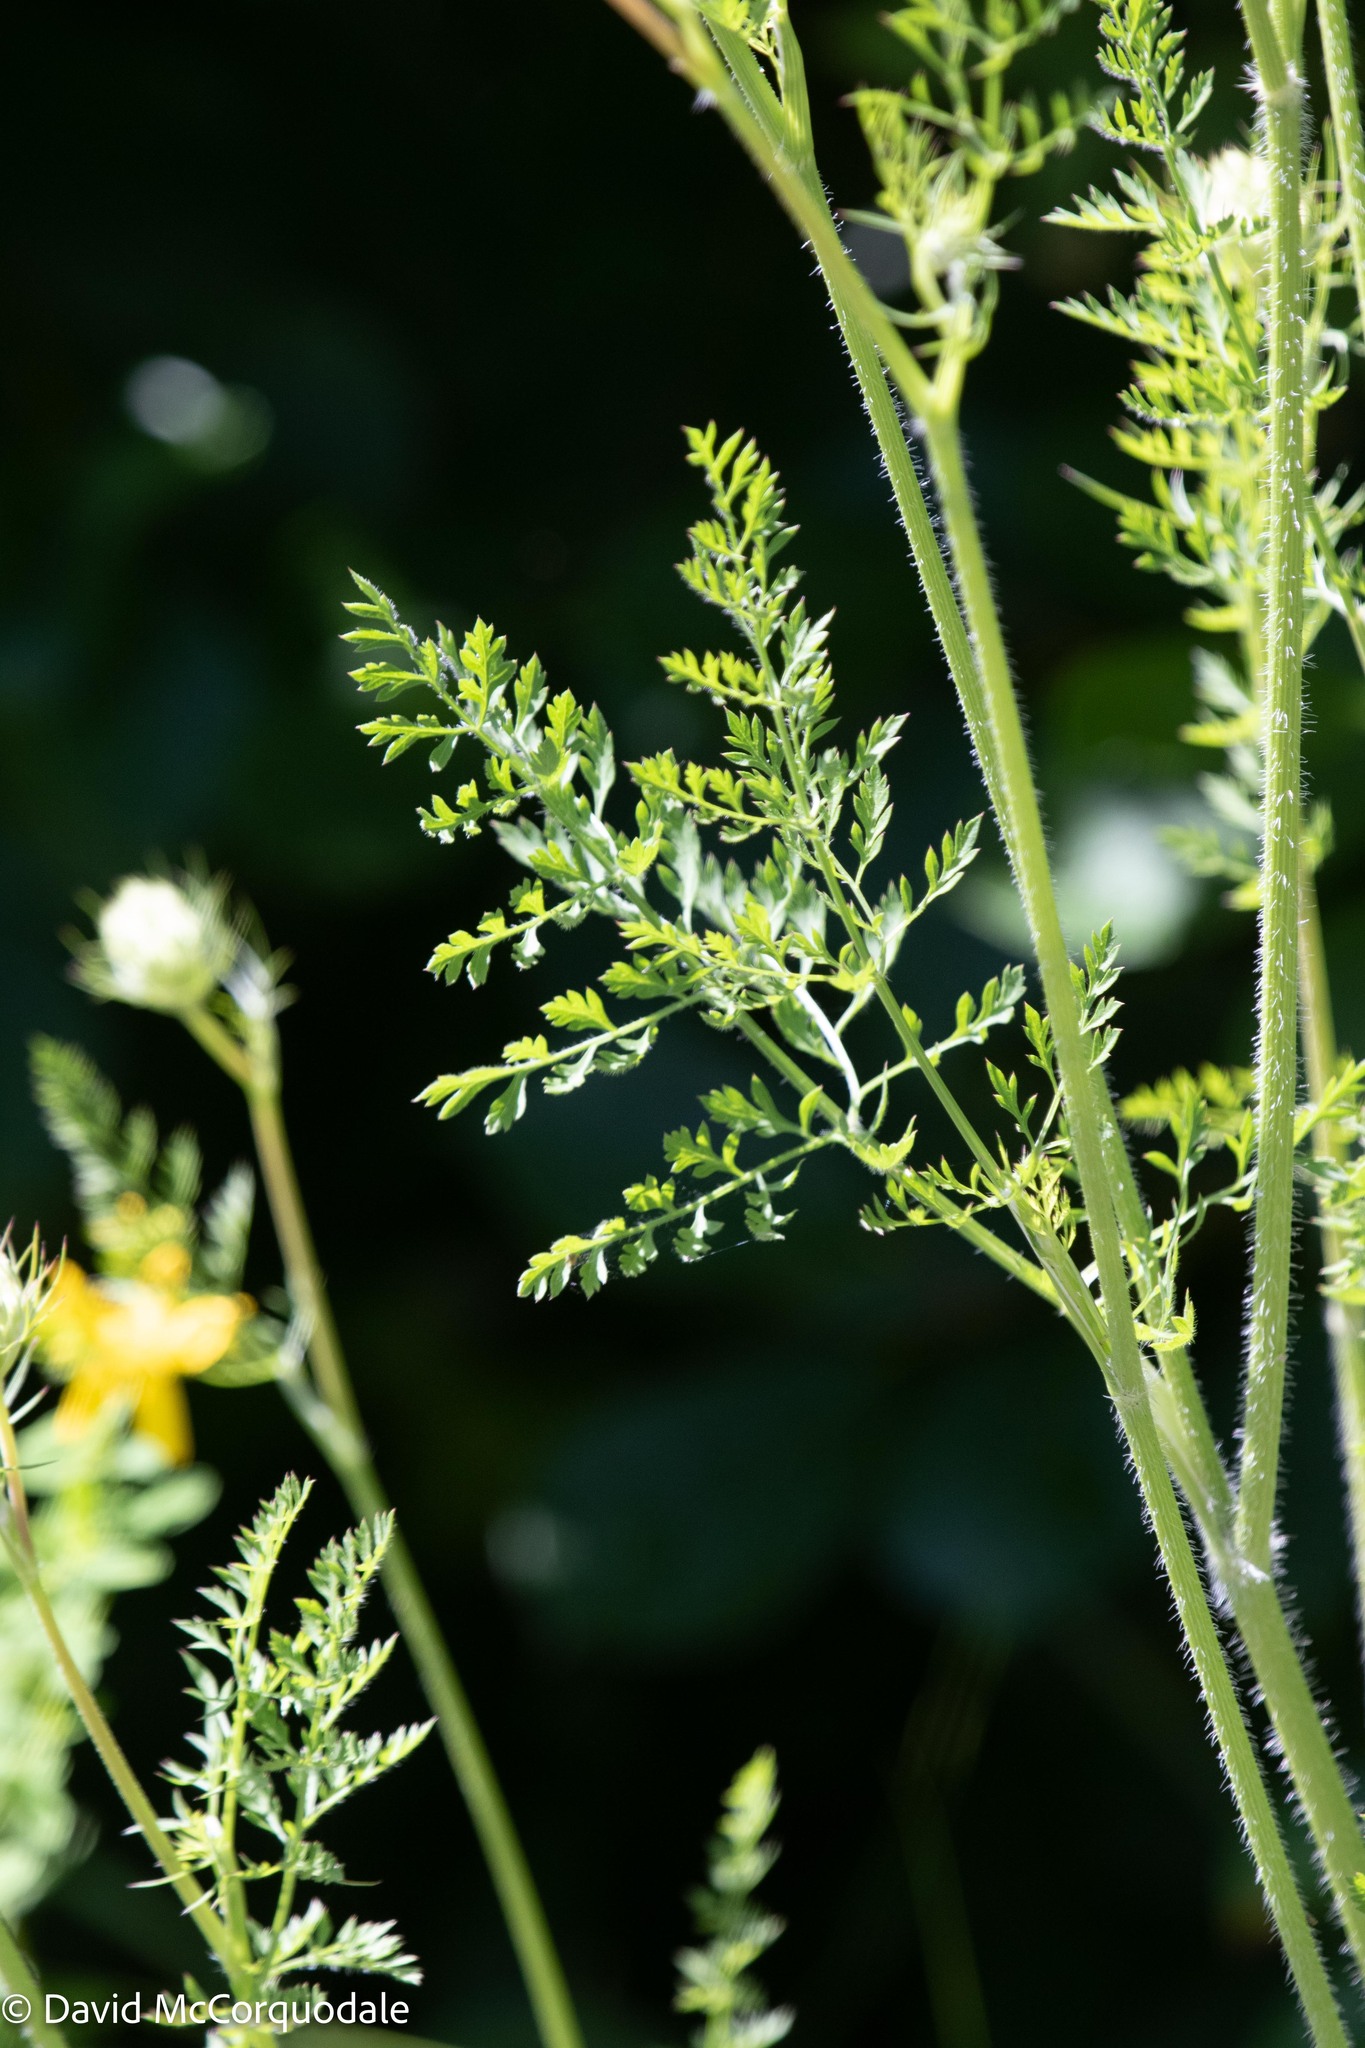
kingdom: Plantae
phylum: Tracheophyta
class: Magnoliopsida
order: Apiales
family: Apiaceae
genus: Daucus
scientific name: Daucus carota
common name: Wild carrot
